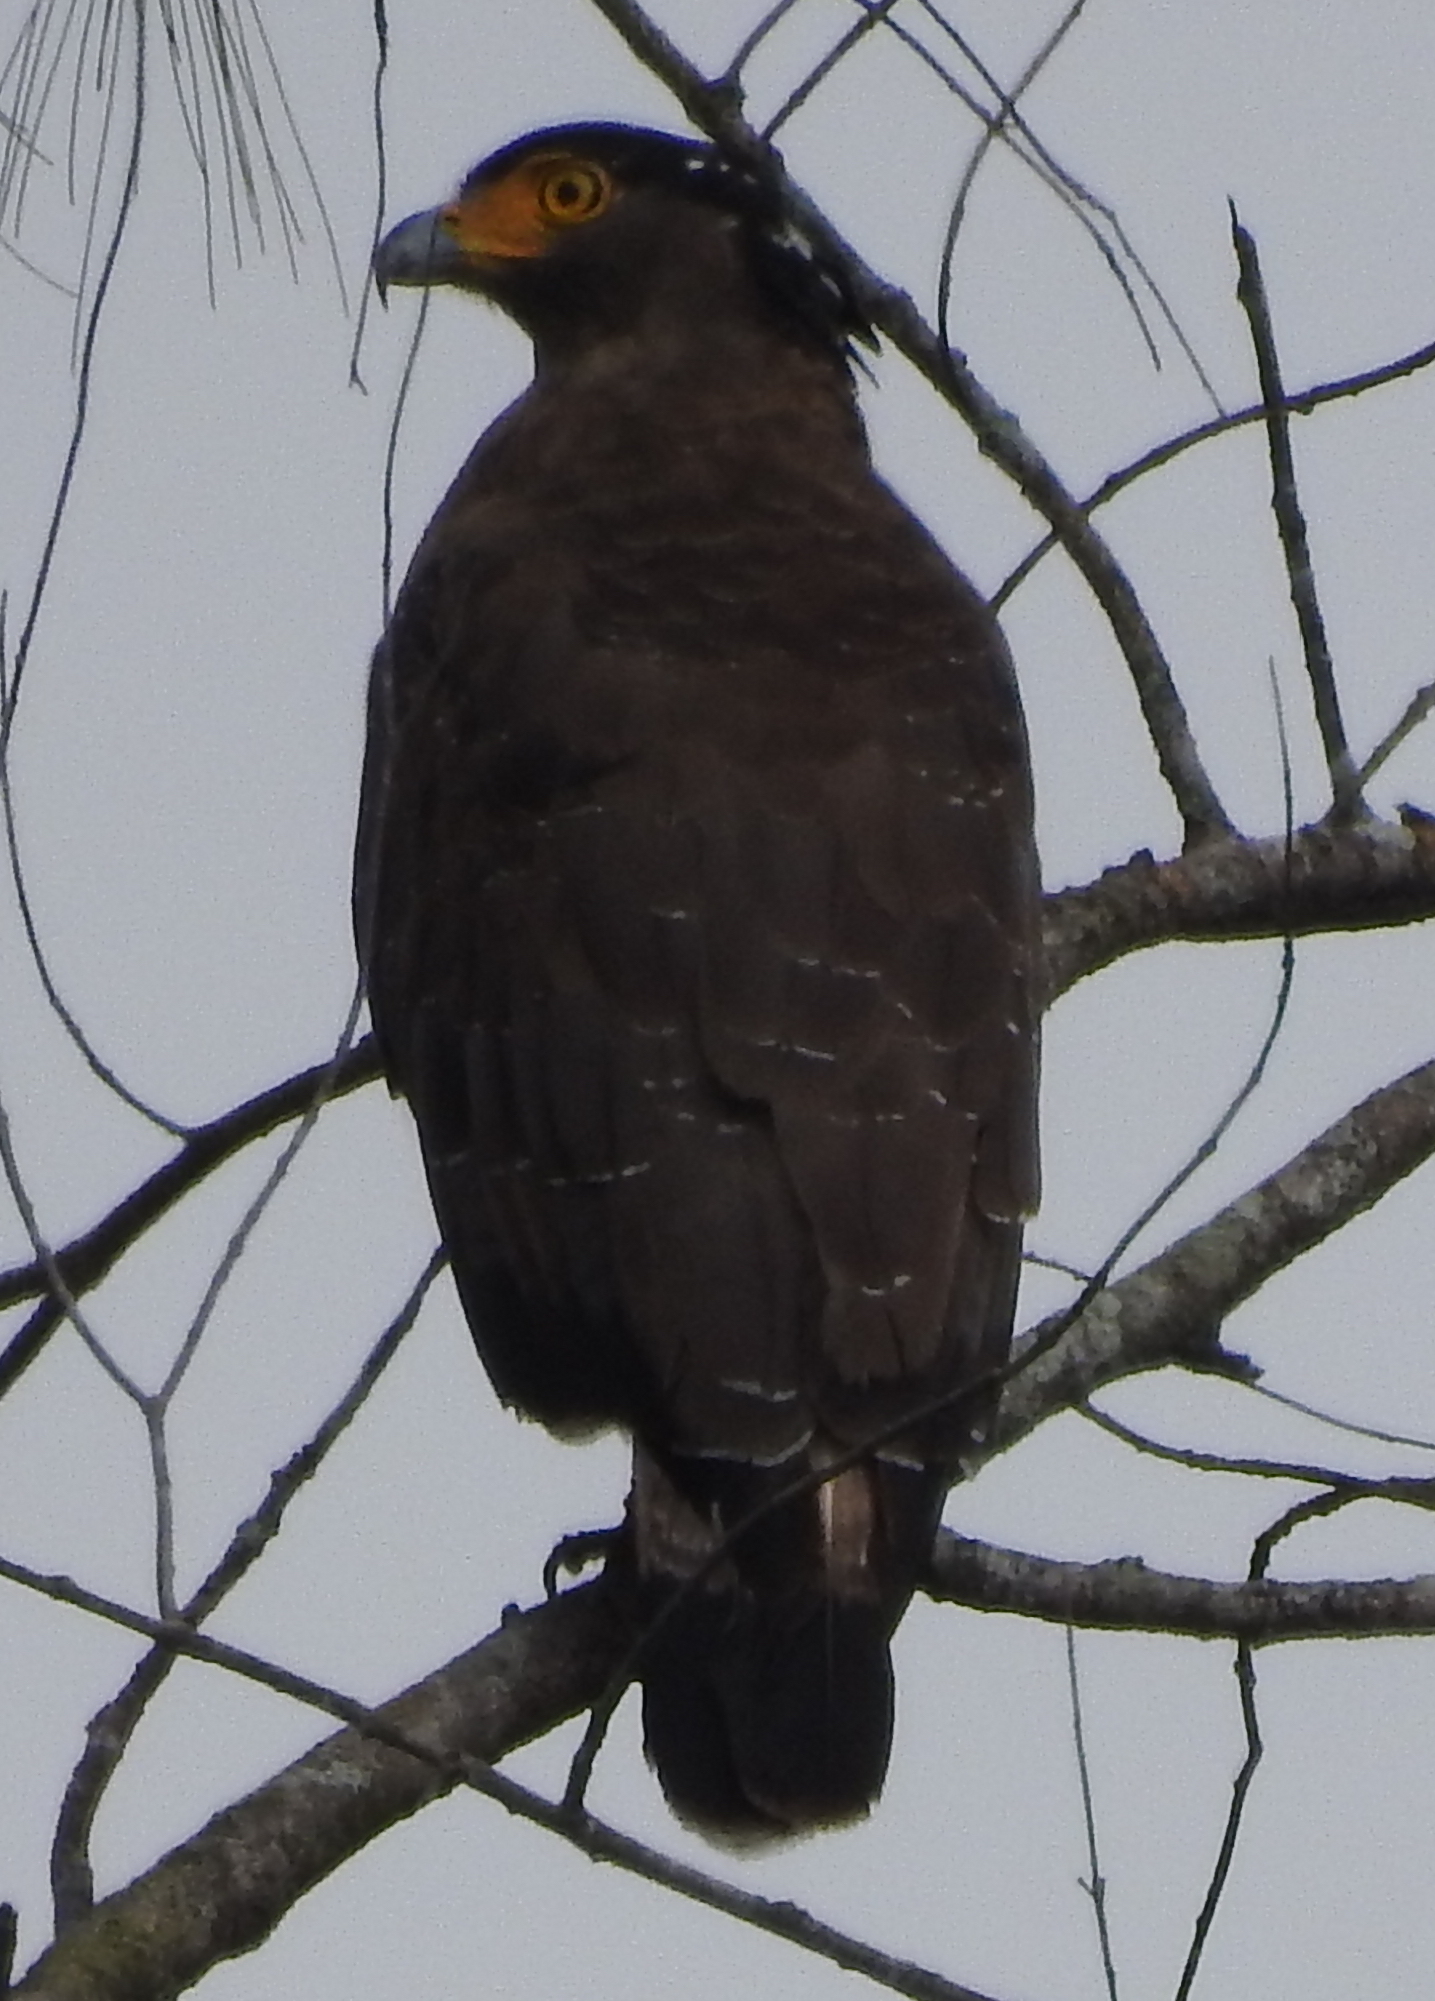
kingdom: Animalia
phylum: Chordata
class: Aves
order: Accipitriformes
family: Accipitridae
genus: Spilornis
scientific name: Spilornis cheela
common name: Crested serpent eagle
